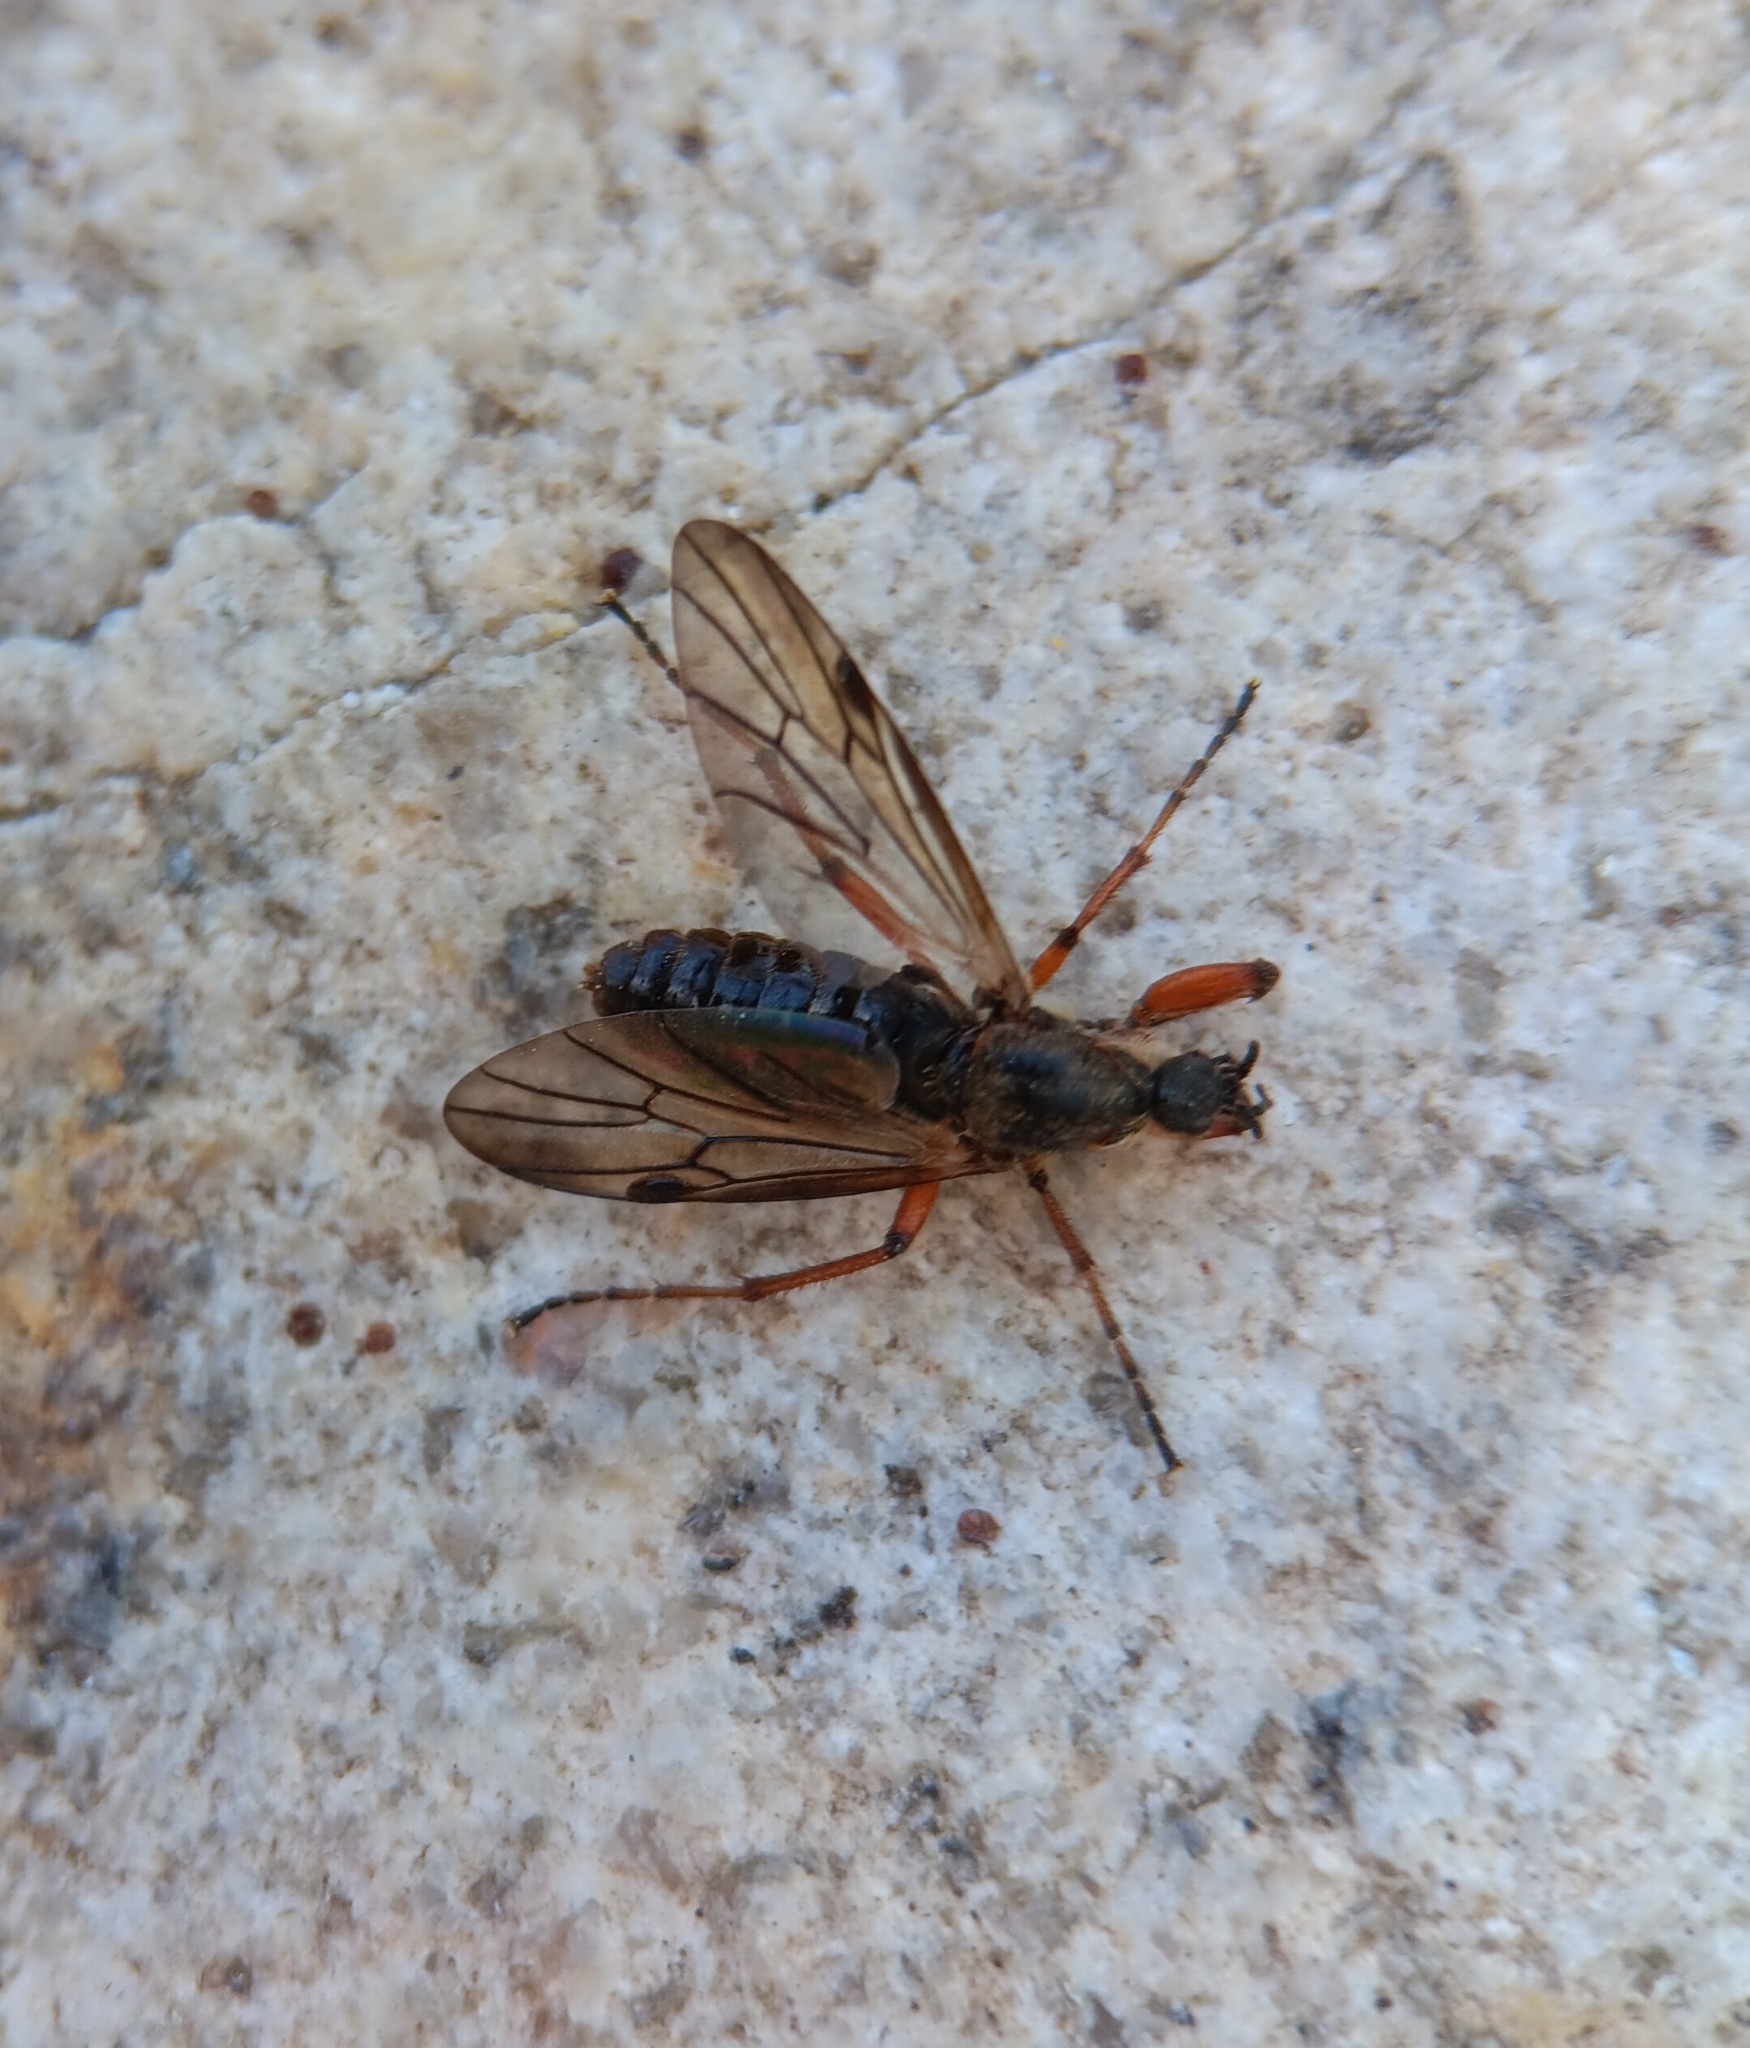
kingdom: Animalia
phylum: Arthropoda
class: Insecta
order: Diptera
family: Bibionidae
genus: Bibio
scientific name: Bibio xanthopus
